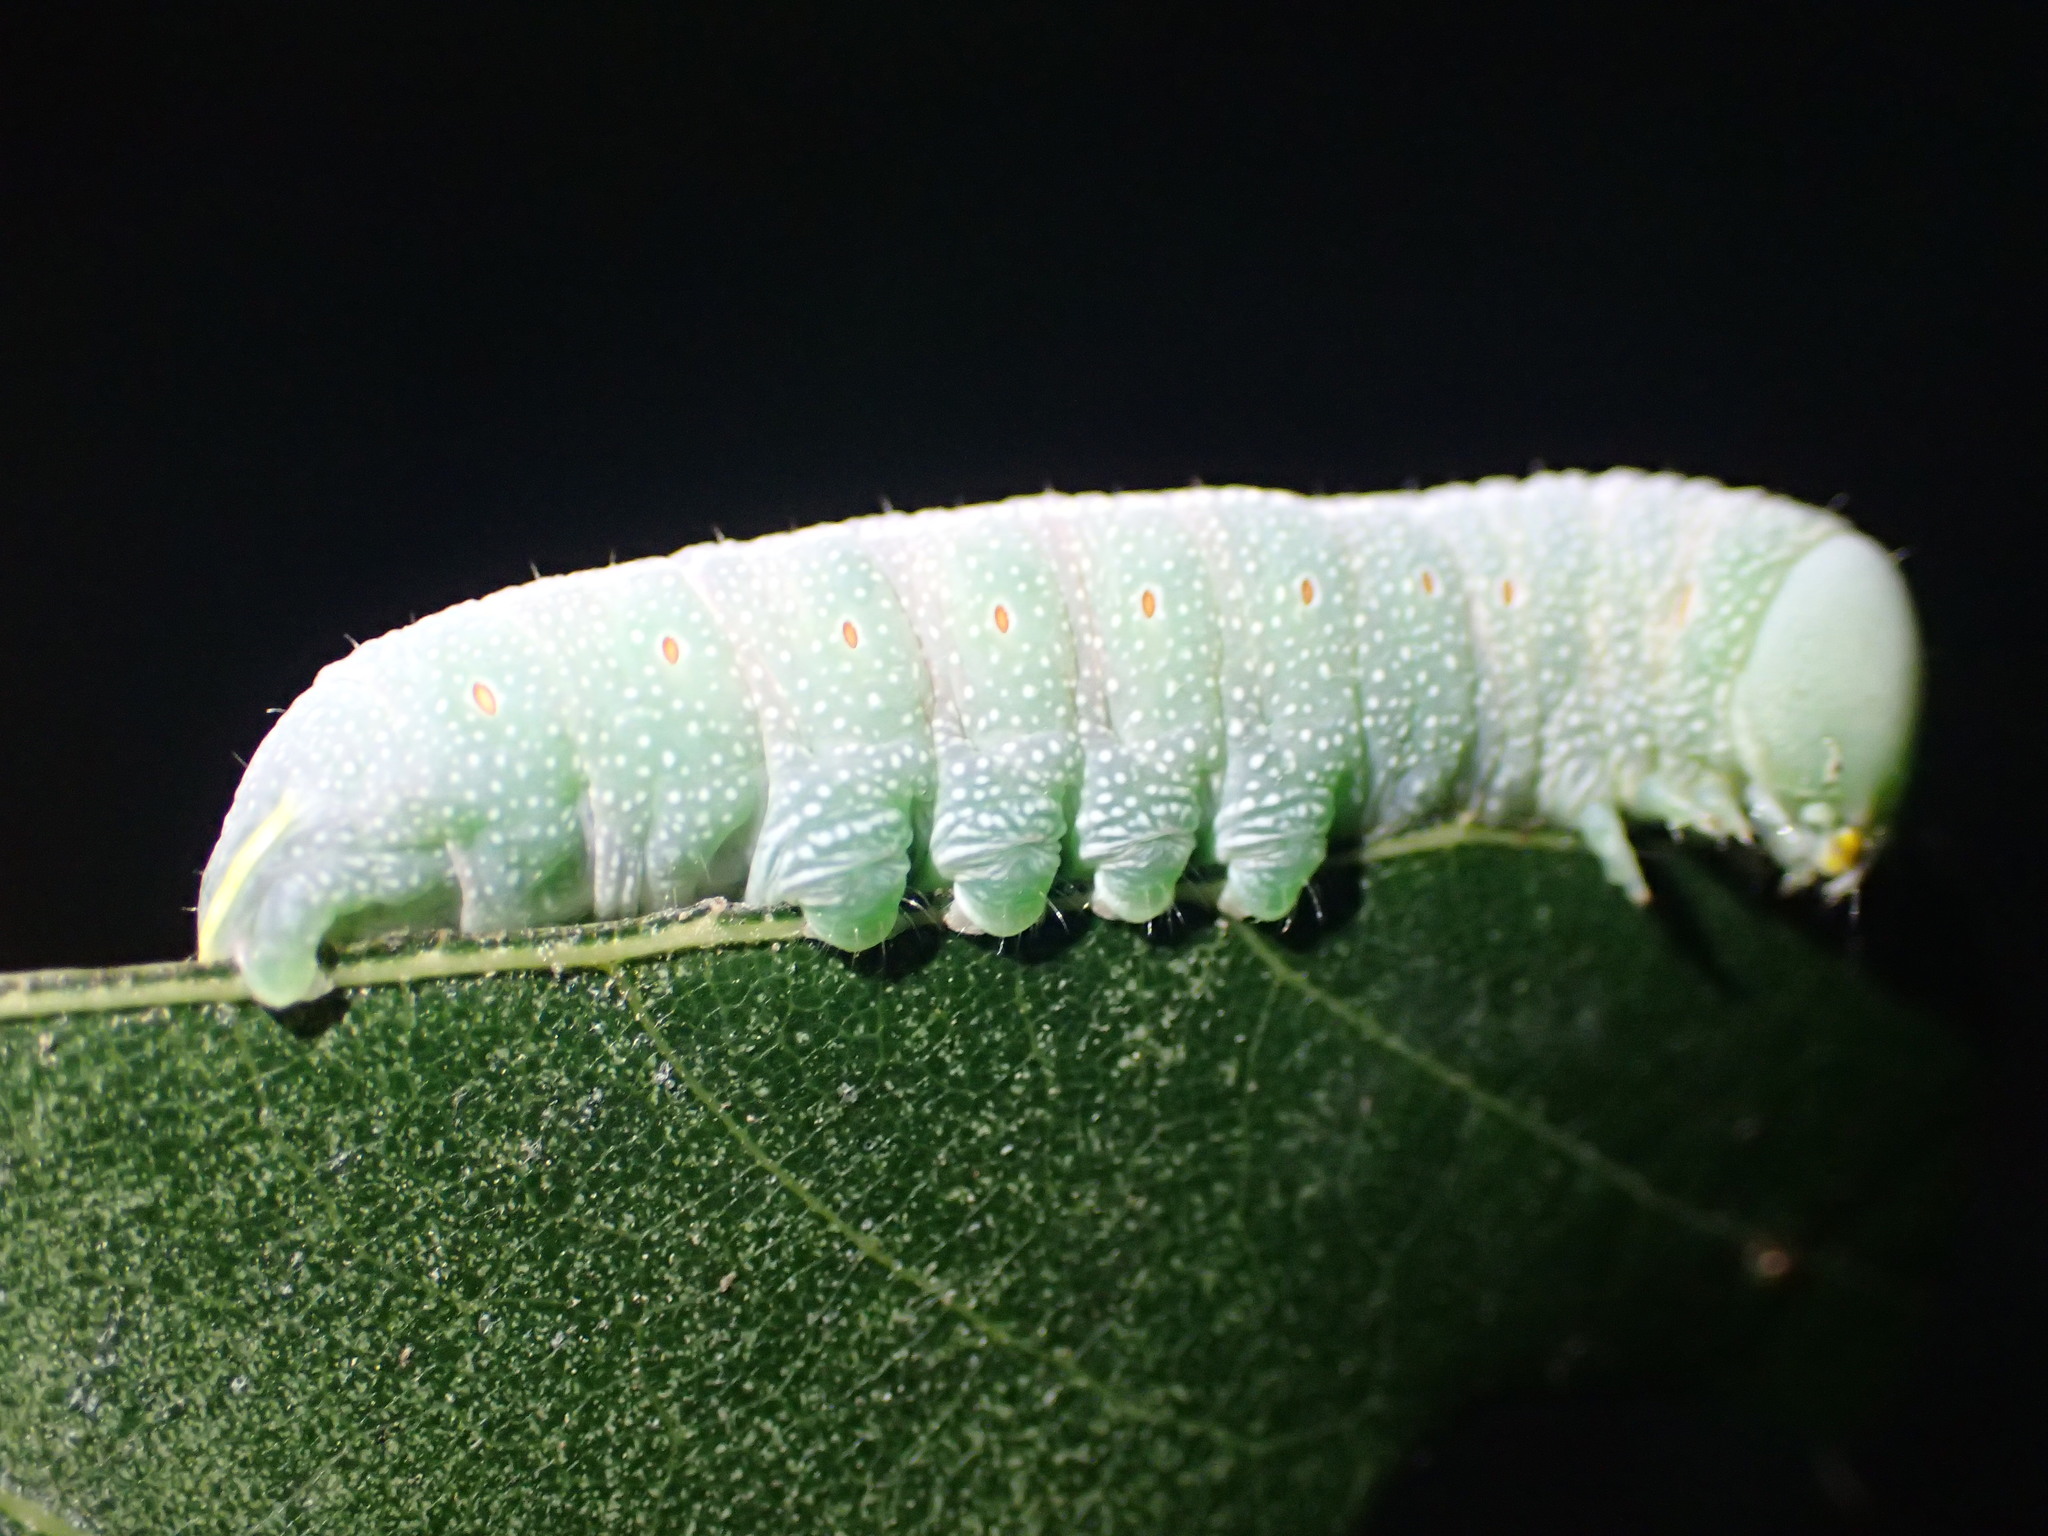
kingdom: Animalia
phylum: Arthropoda
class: Insecta
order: Lepidoptera
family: Notodontidae
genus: Nadata
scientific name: Nadata gibbosa
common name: White-dotted prominent
